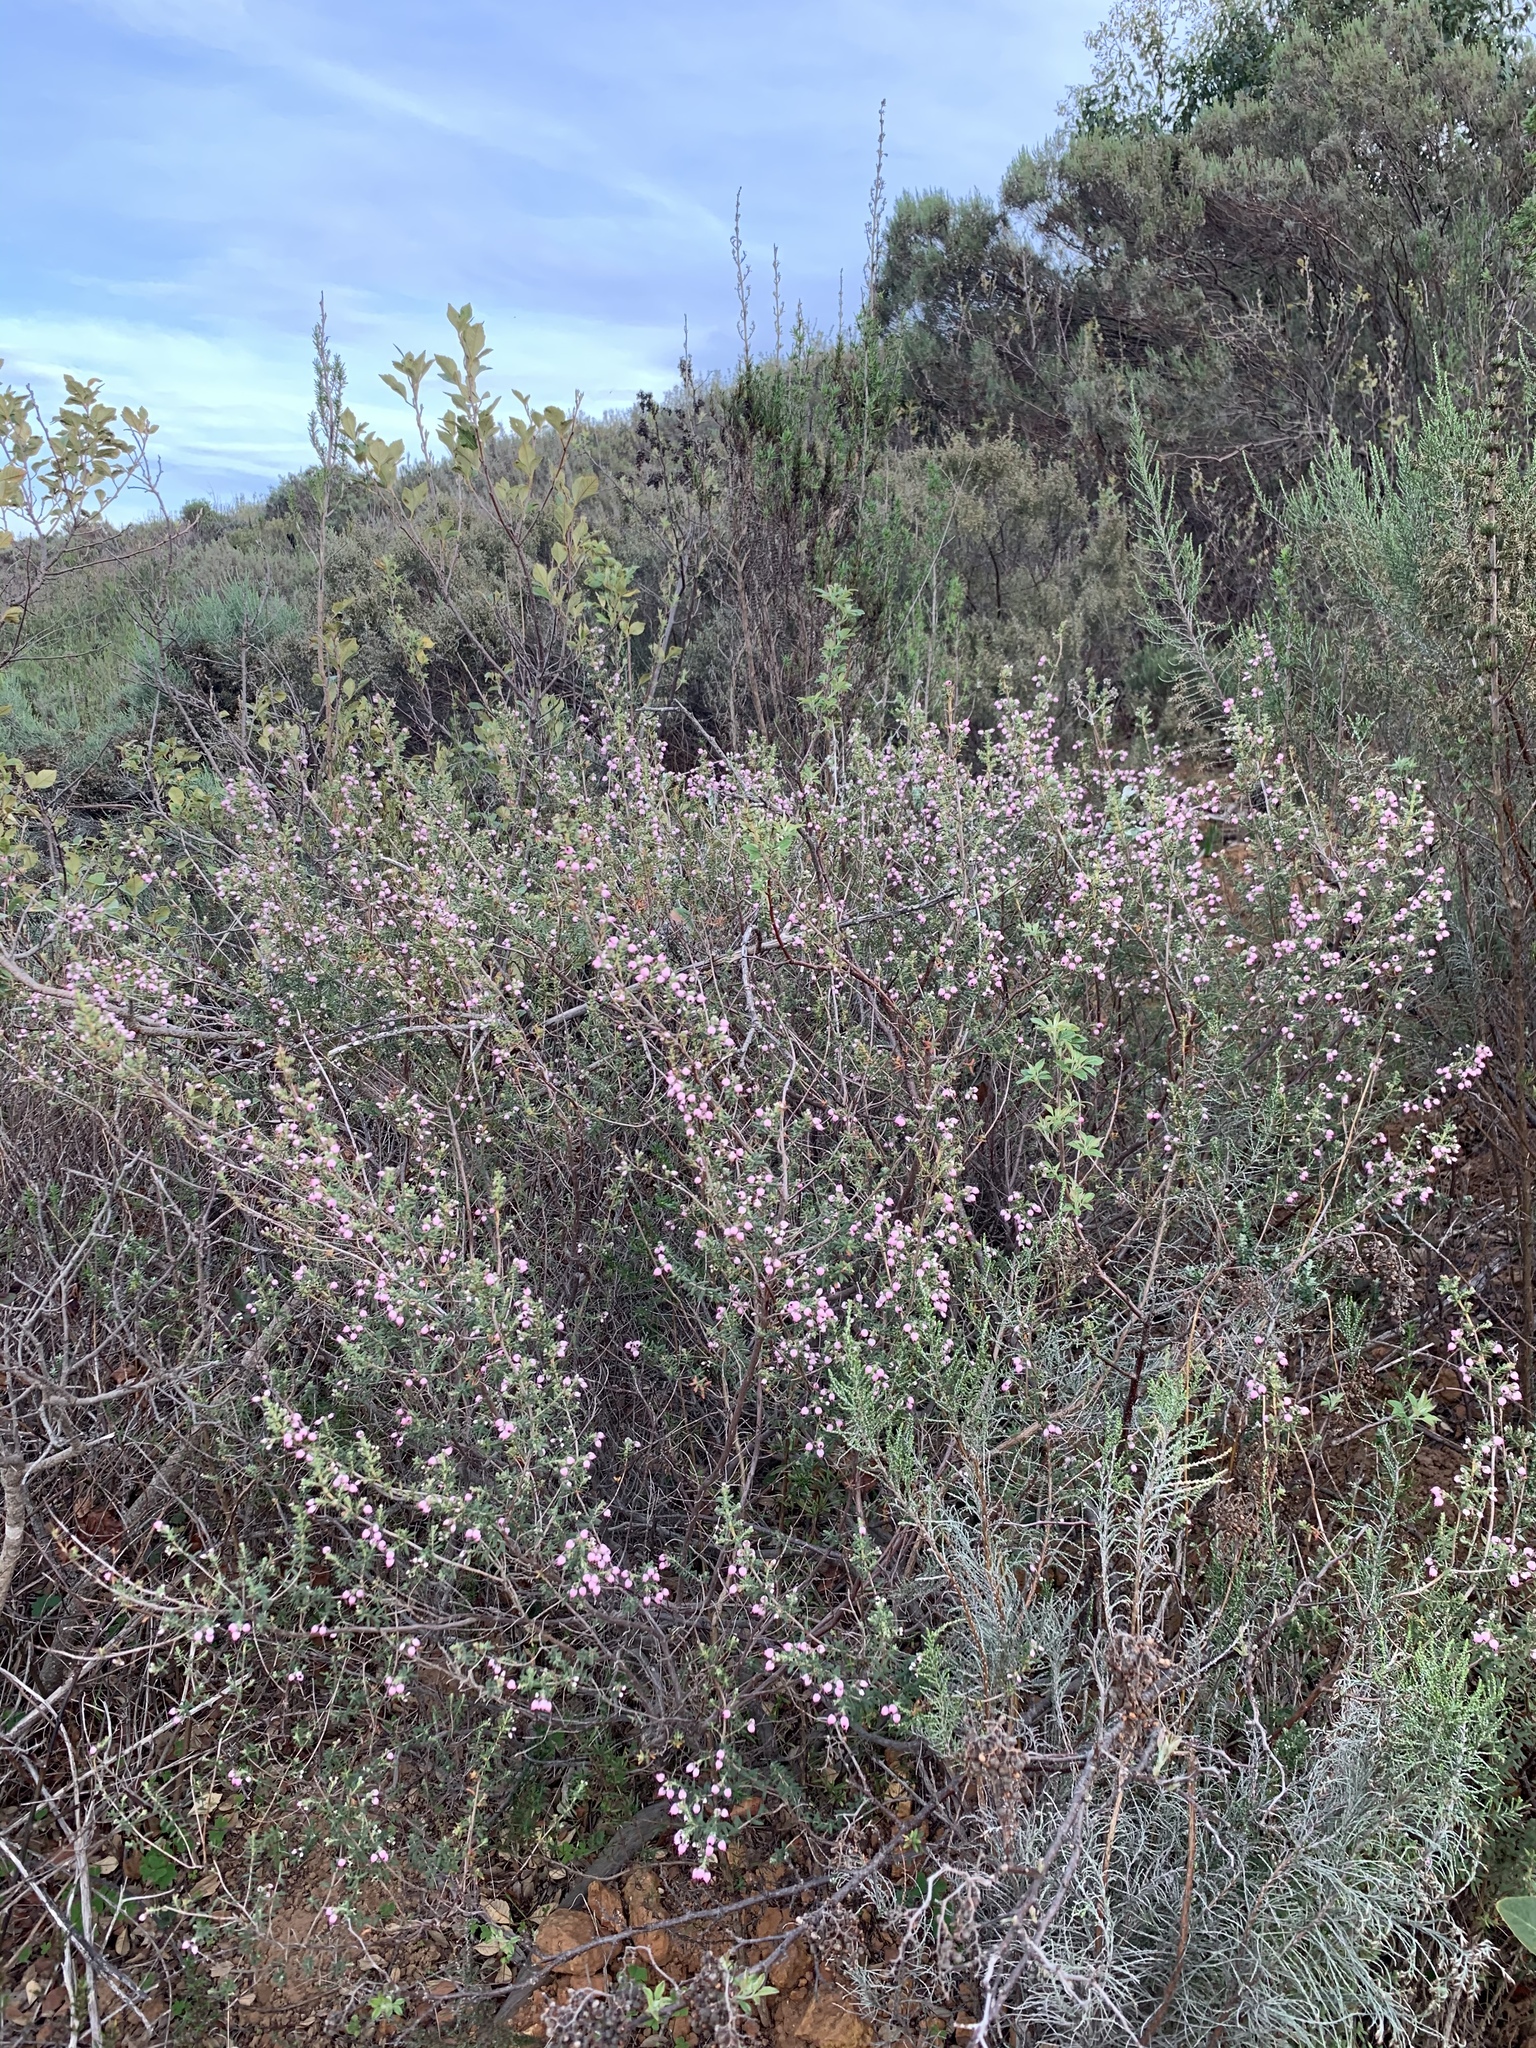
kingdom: Plantae
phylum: Tracheophyta
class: Magnoliopsida
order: Ericales
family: Ericaceae
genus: Erica
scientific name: Erica hirta
